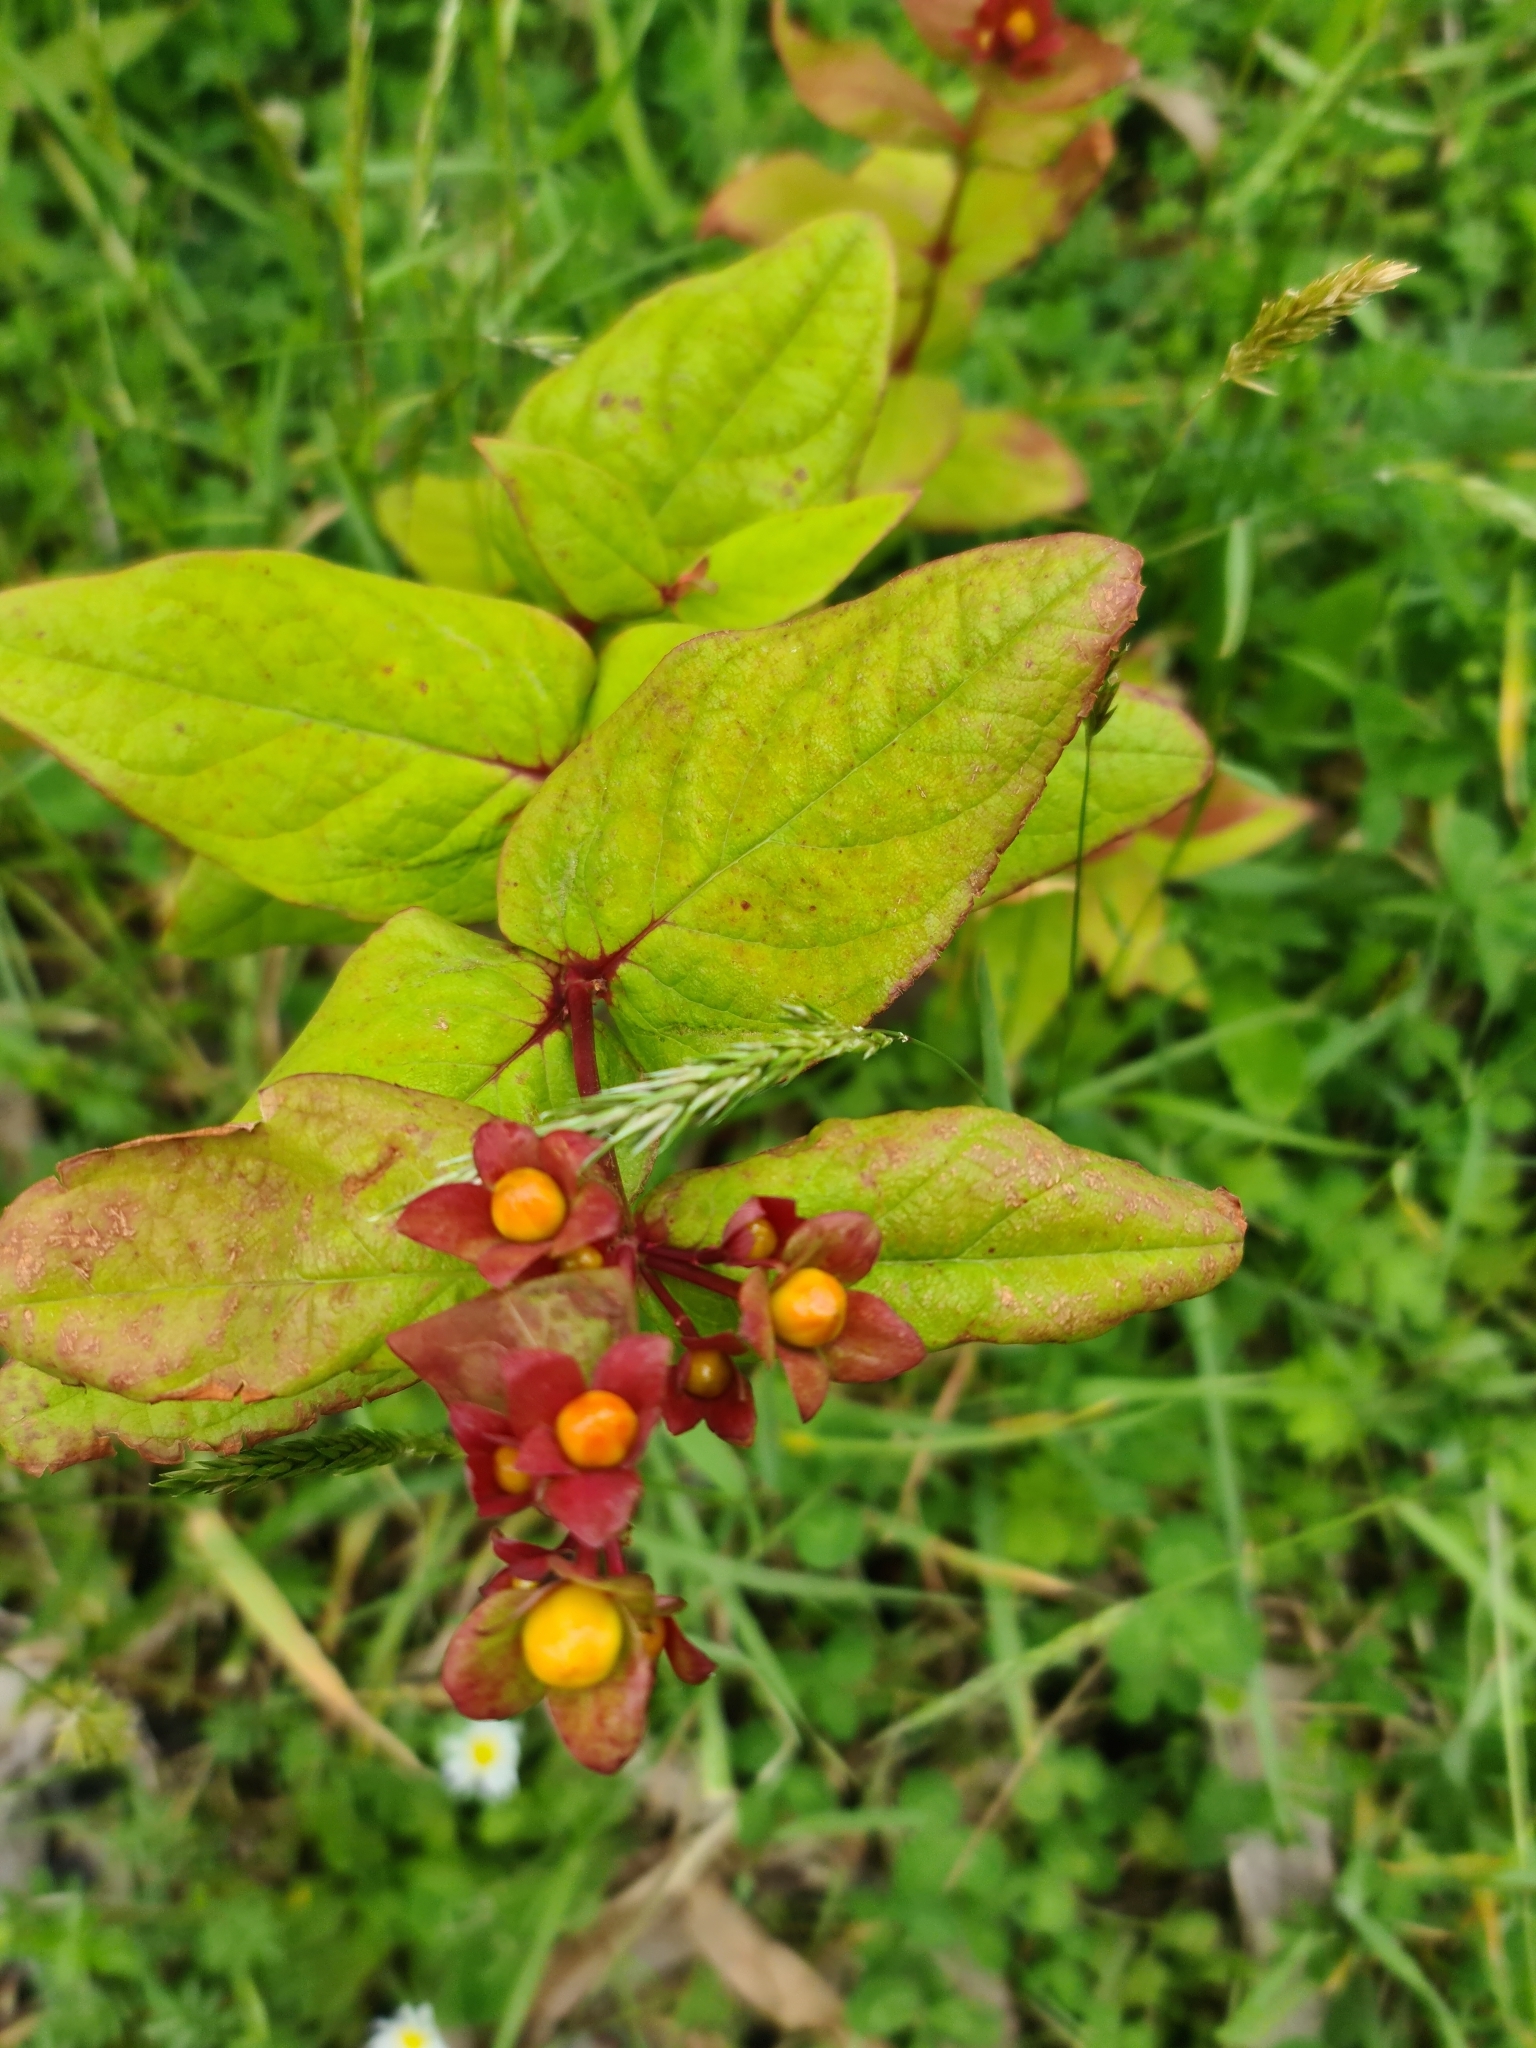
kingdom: Plantae
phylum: Tracheophyta
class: Magnoliopsida
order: Malpighiales
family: Hypericaceae
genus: Hypericum
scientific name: Hypericum androsaemum
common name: Sweet-amber
